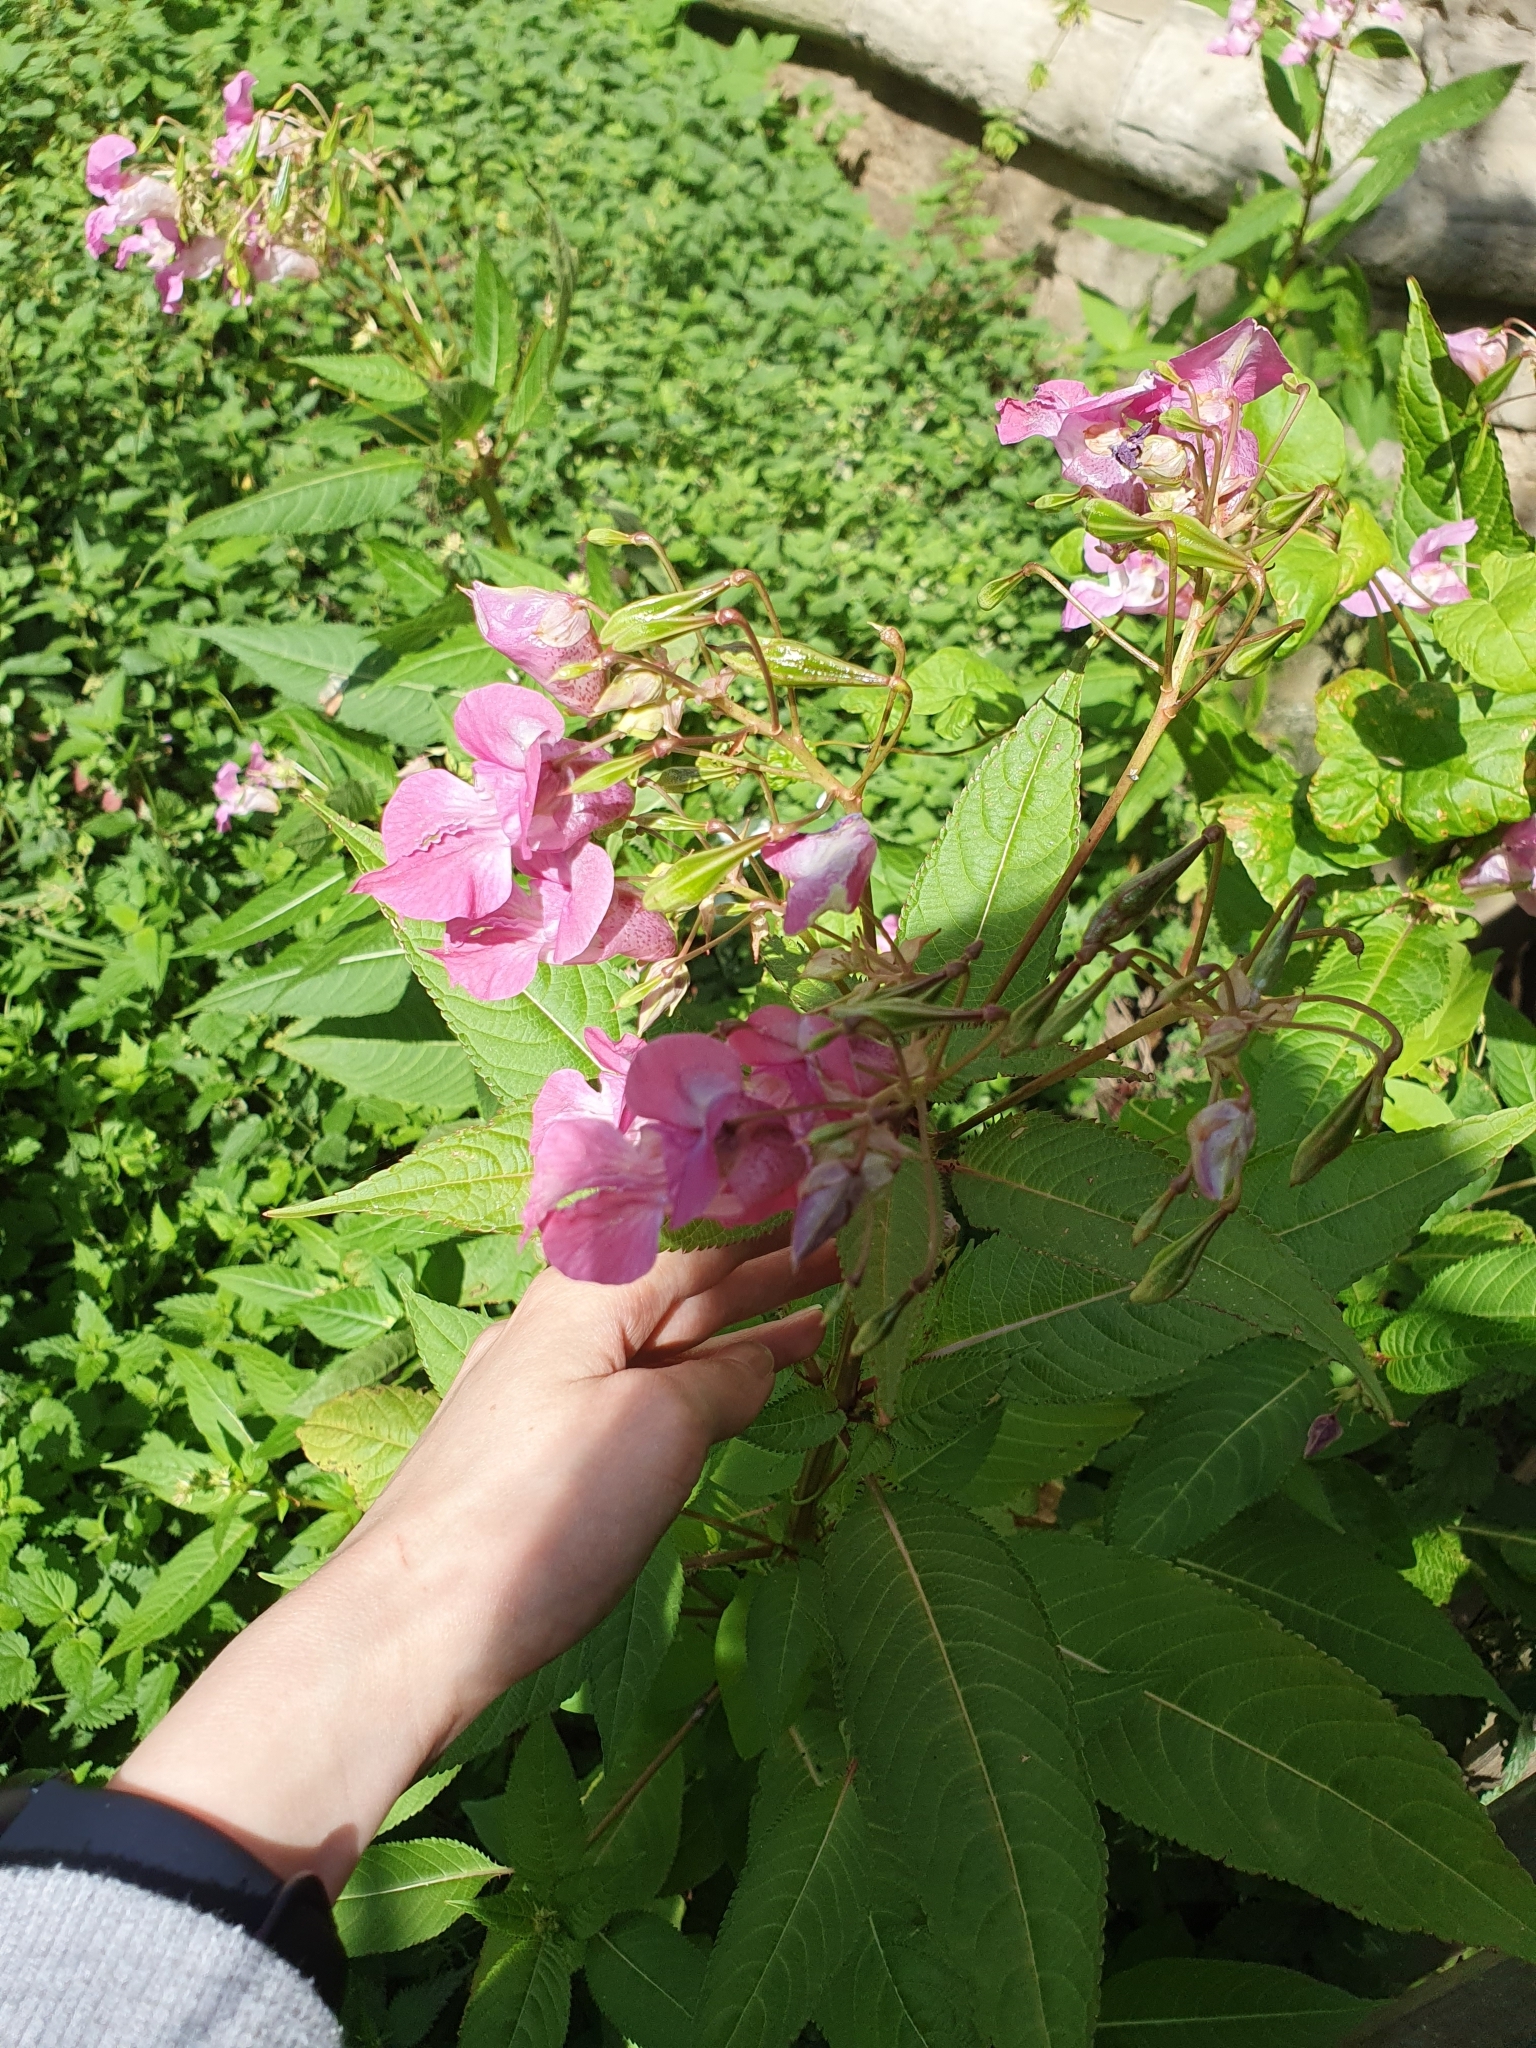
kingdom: Plantae
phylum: Tracheophyta
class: Magnoliopsida
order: Ericales
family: Balsaminaceae
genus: Impatiens
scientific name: Impatiens glandulifera
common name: Himalayan balsam
